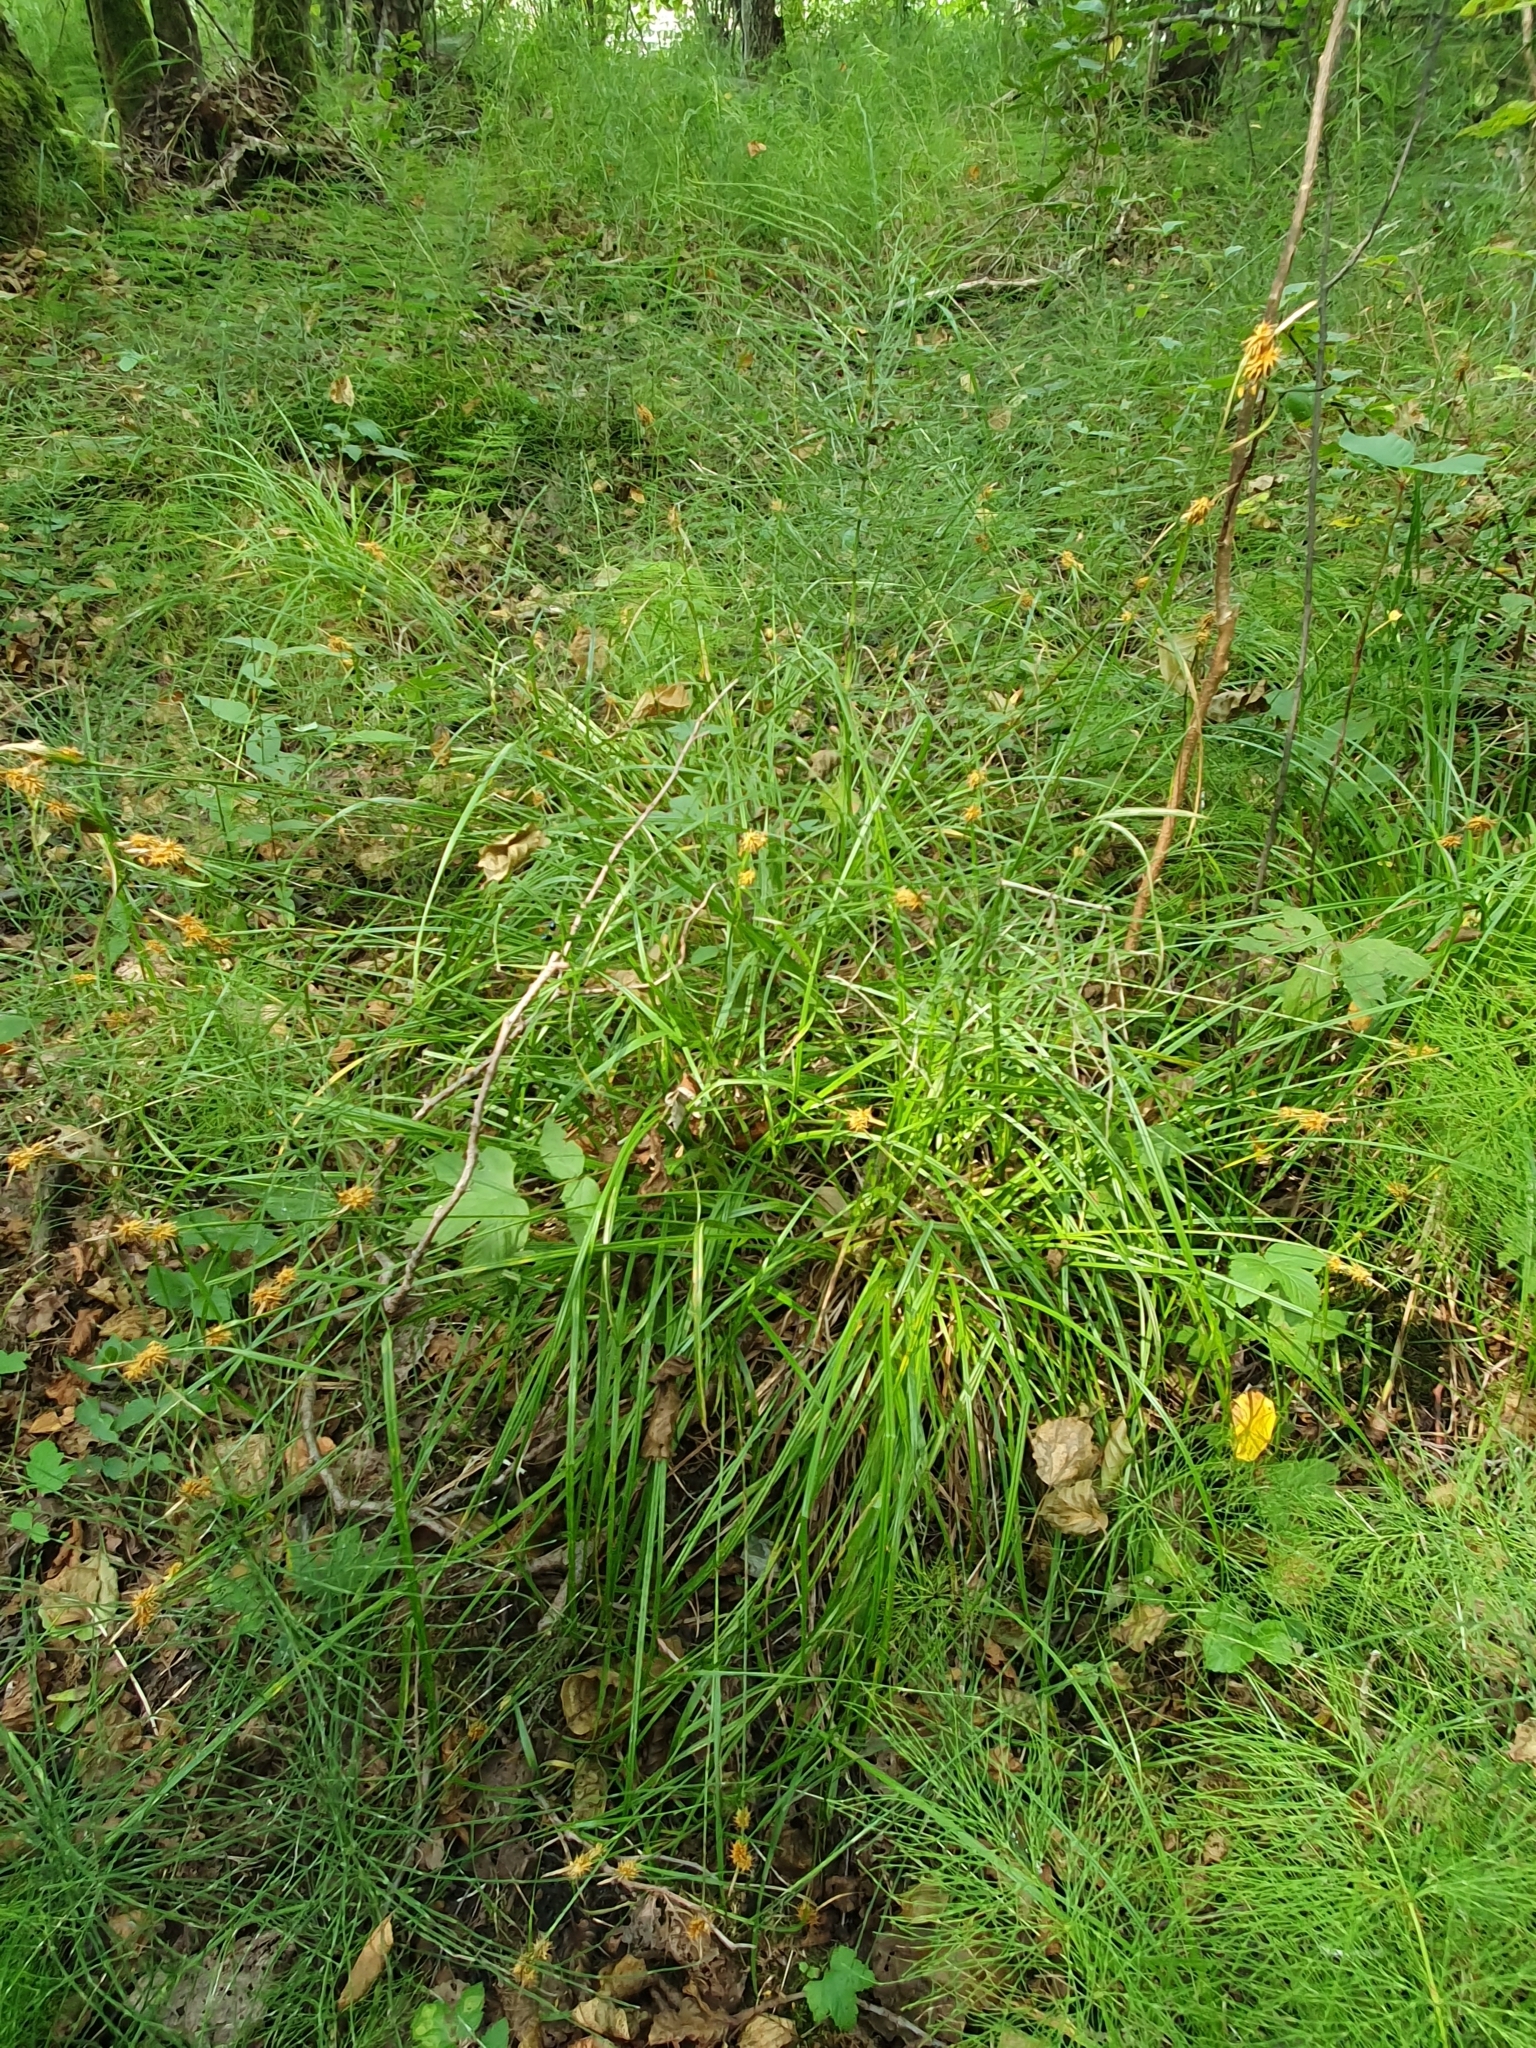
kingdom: Plantae
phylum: Tracheophyta
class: Liliopsida
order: Poales
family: Cyperaceae
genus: Carex
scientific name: Carex flava
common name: Large yellow-sedge
